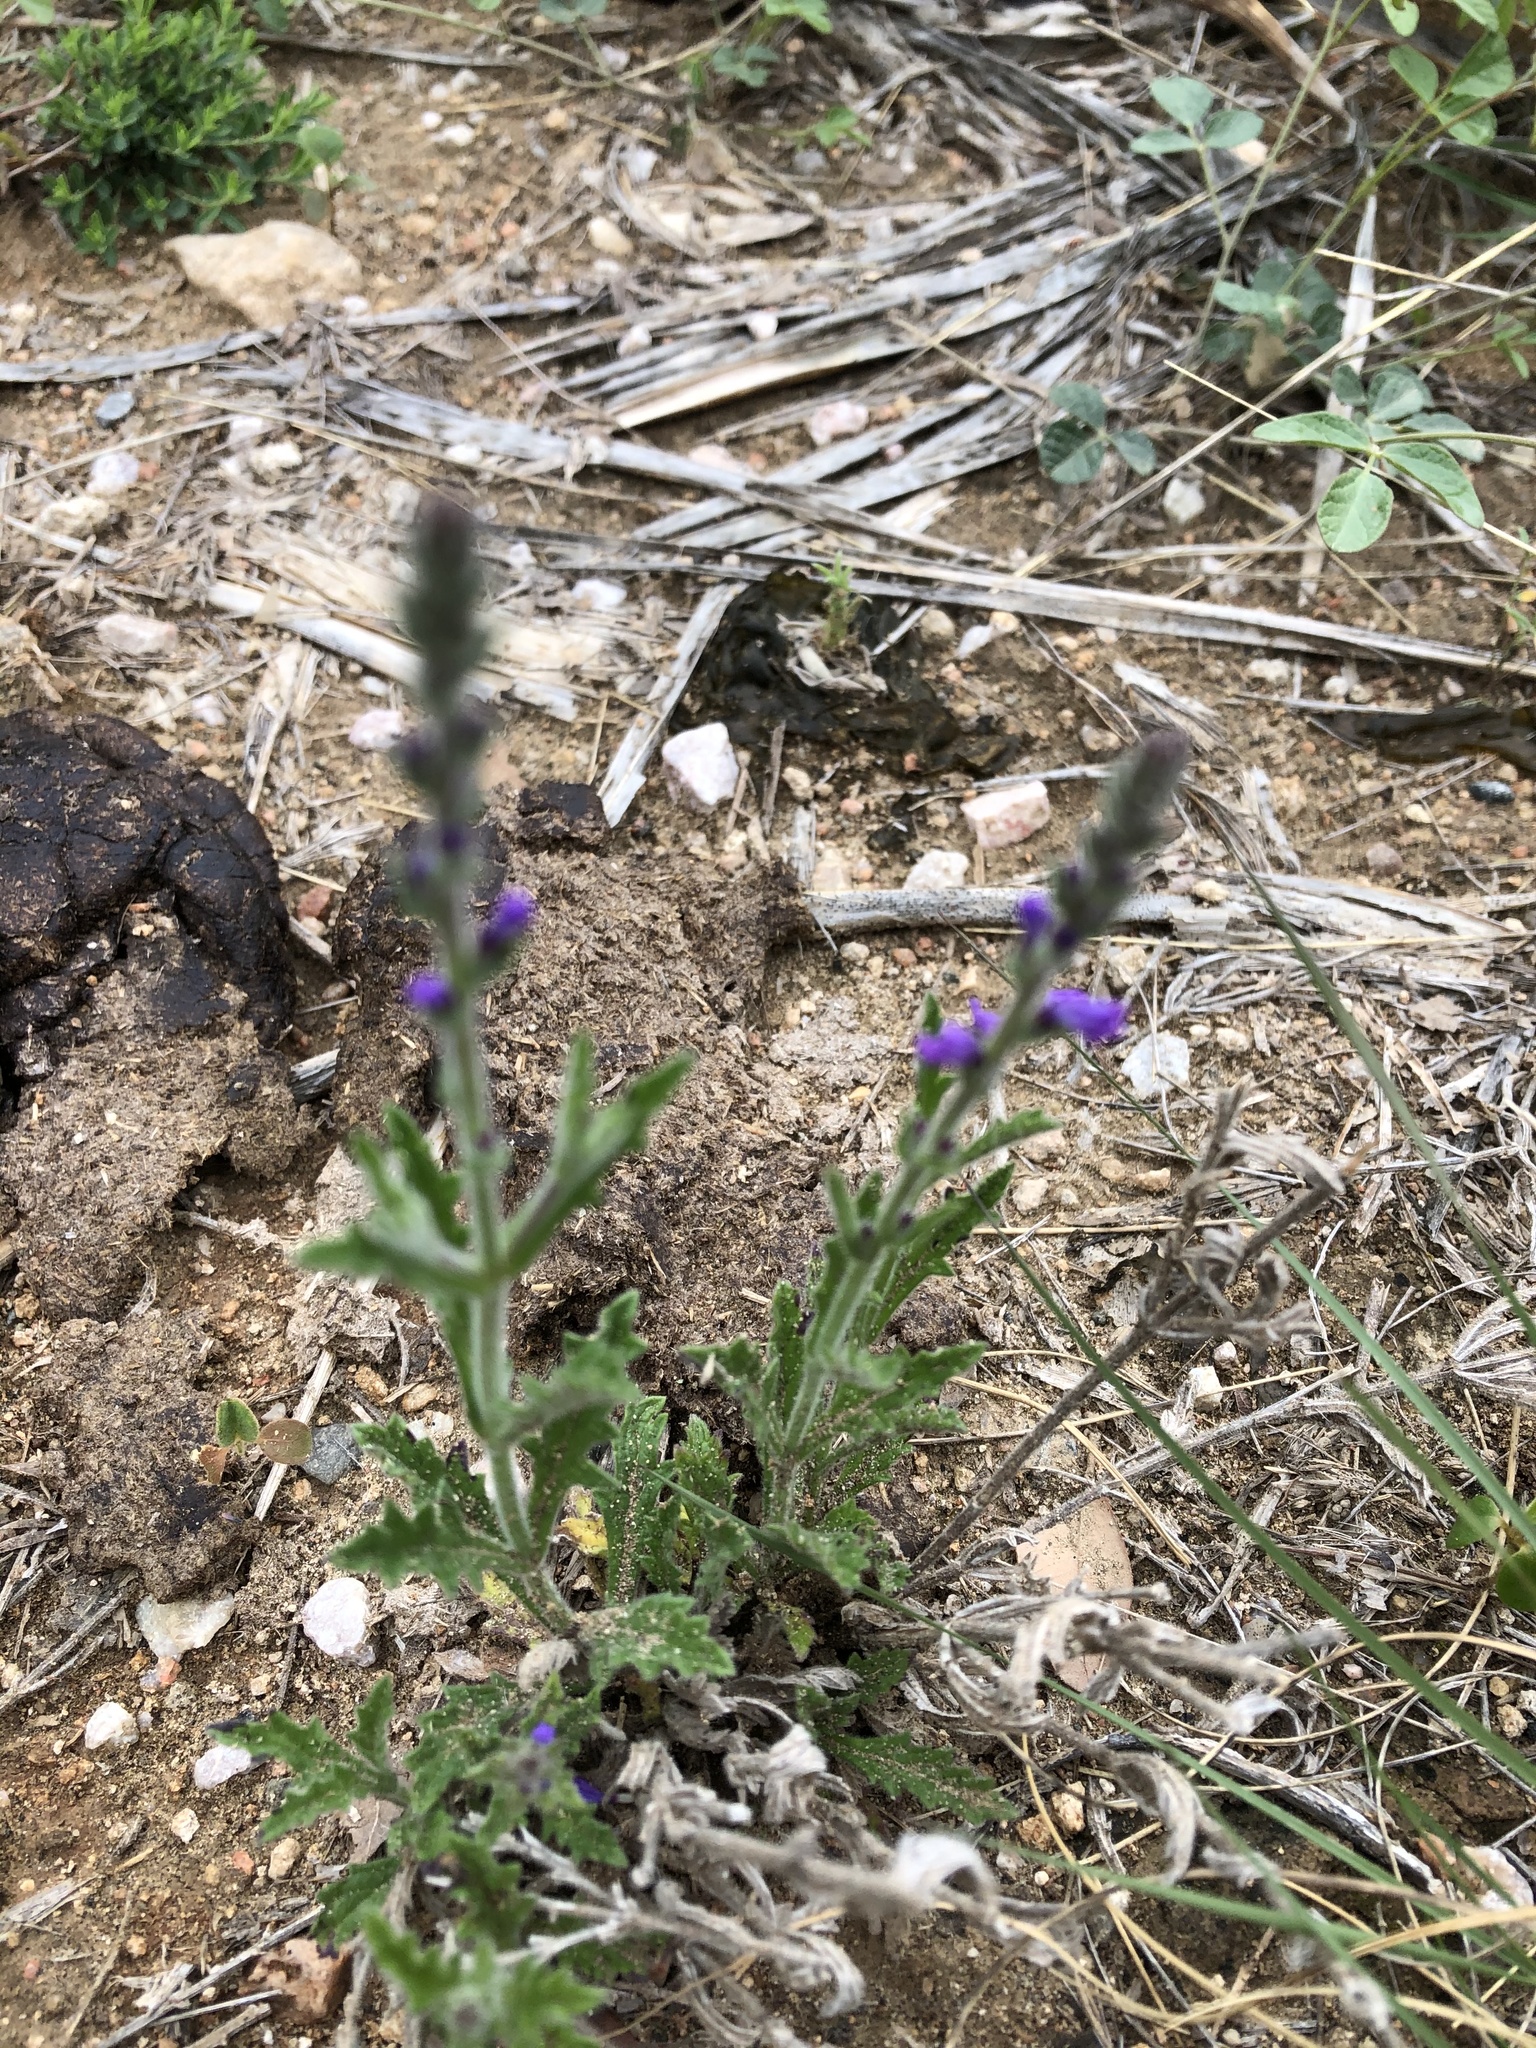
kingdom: Plantae
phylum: Tracheophyta
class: Magnoliopsida
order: Lamiales
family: Verbenaceae
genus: Verbena
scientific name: Verbena canescens
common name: Gray vervain
